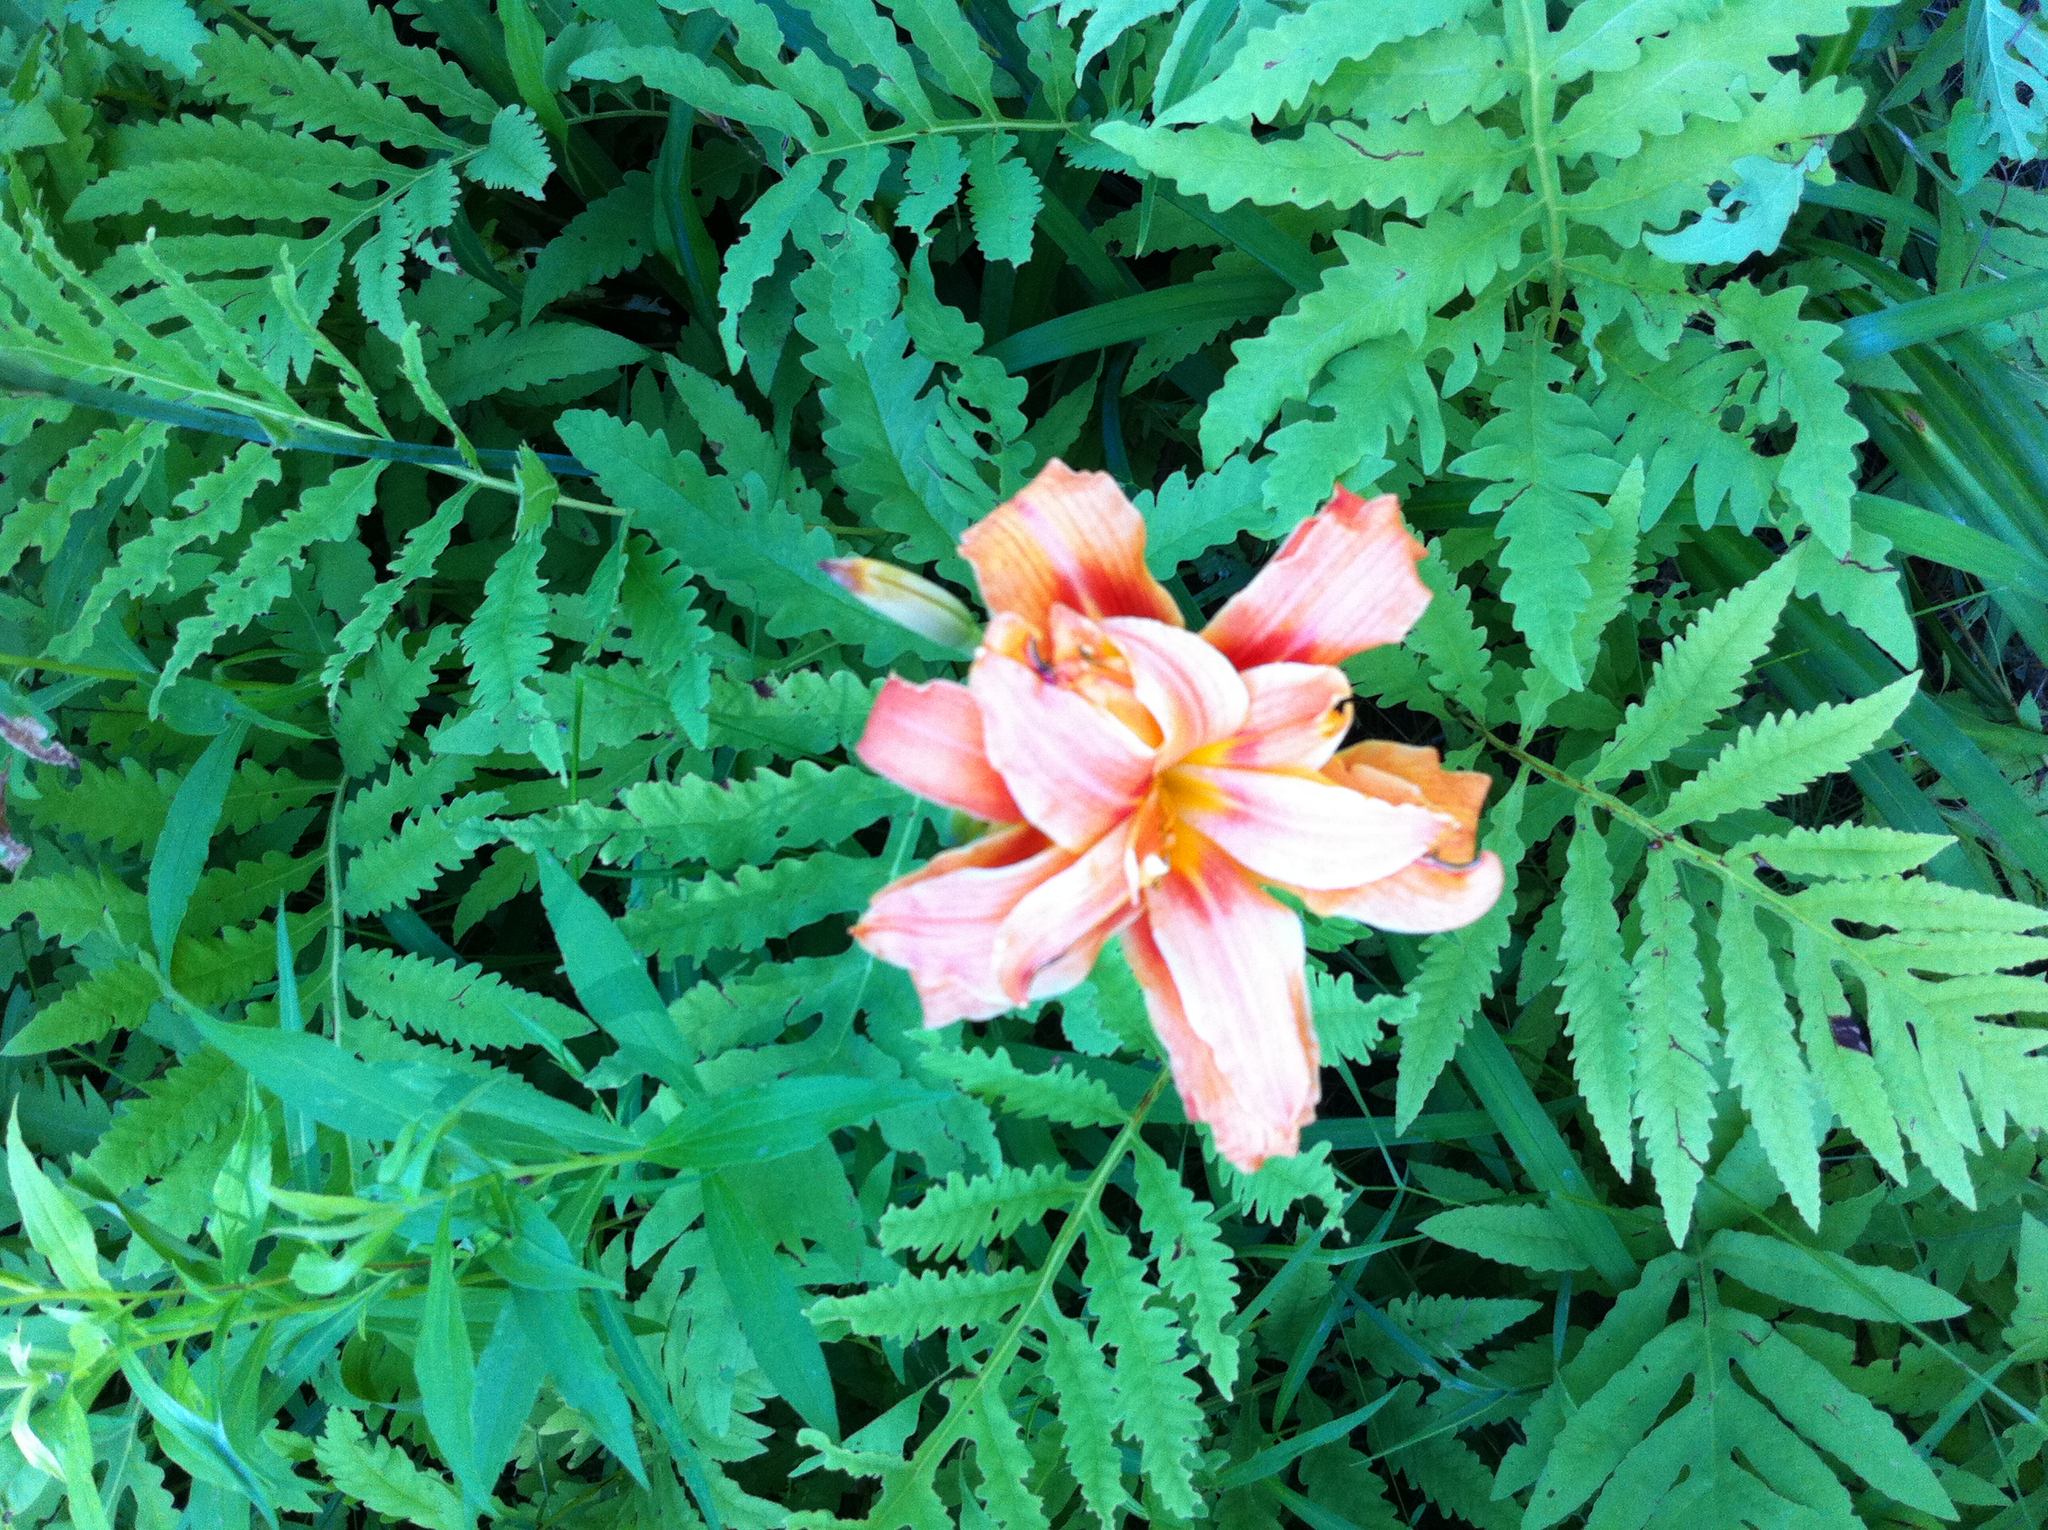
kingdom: Plantae
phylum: Tracheophyta
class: Polypodiopsida
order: Polypodiales
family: Onocleaceae
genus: Onoclea
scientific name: Onoclea sensibilis
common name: Sensitive fern
